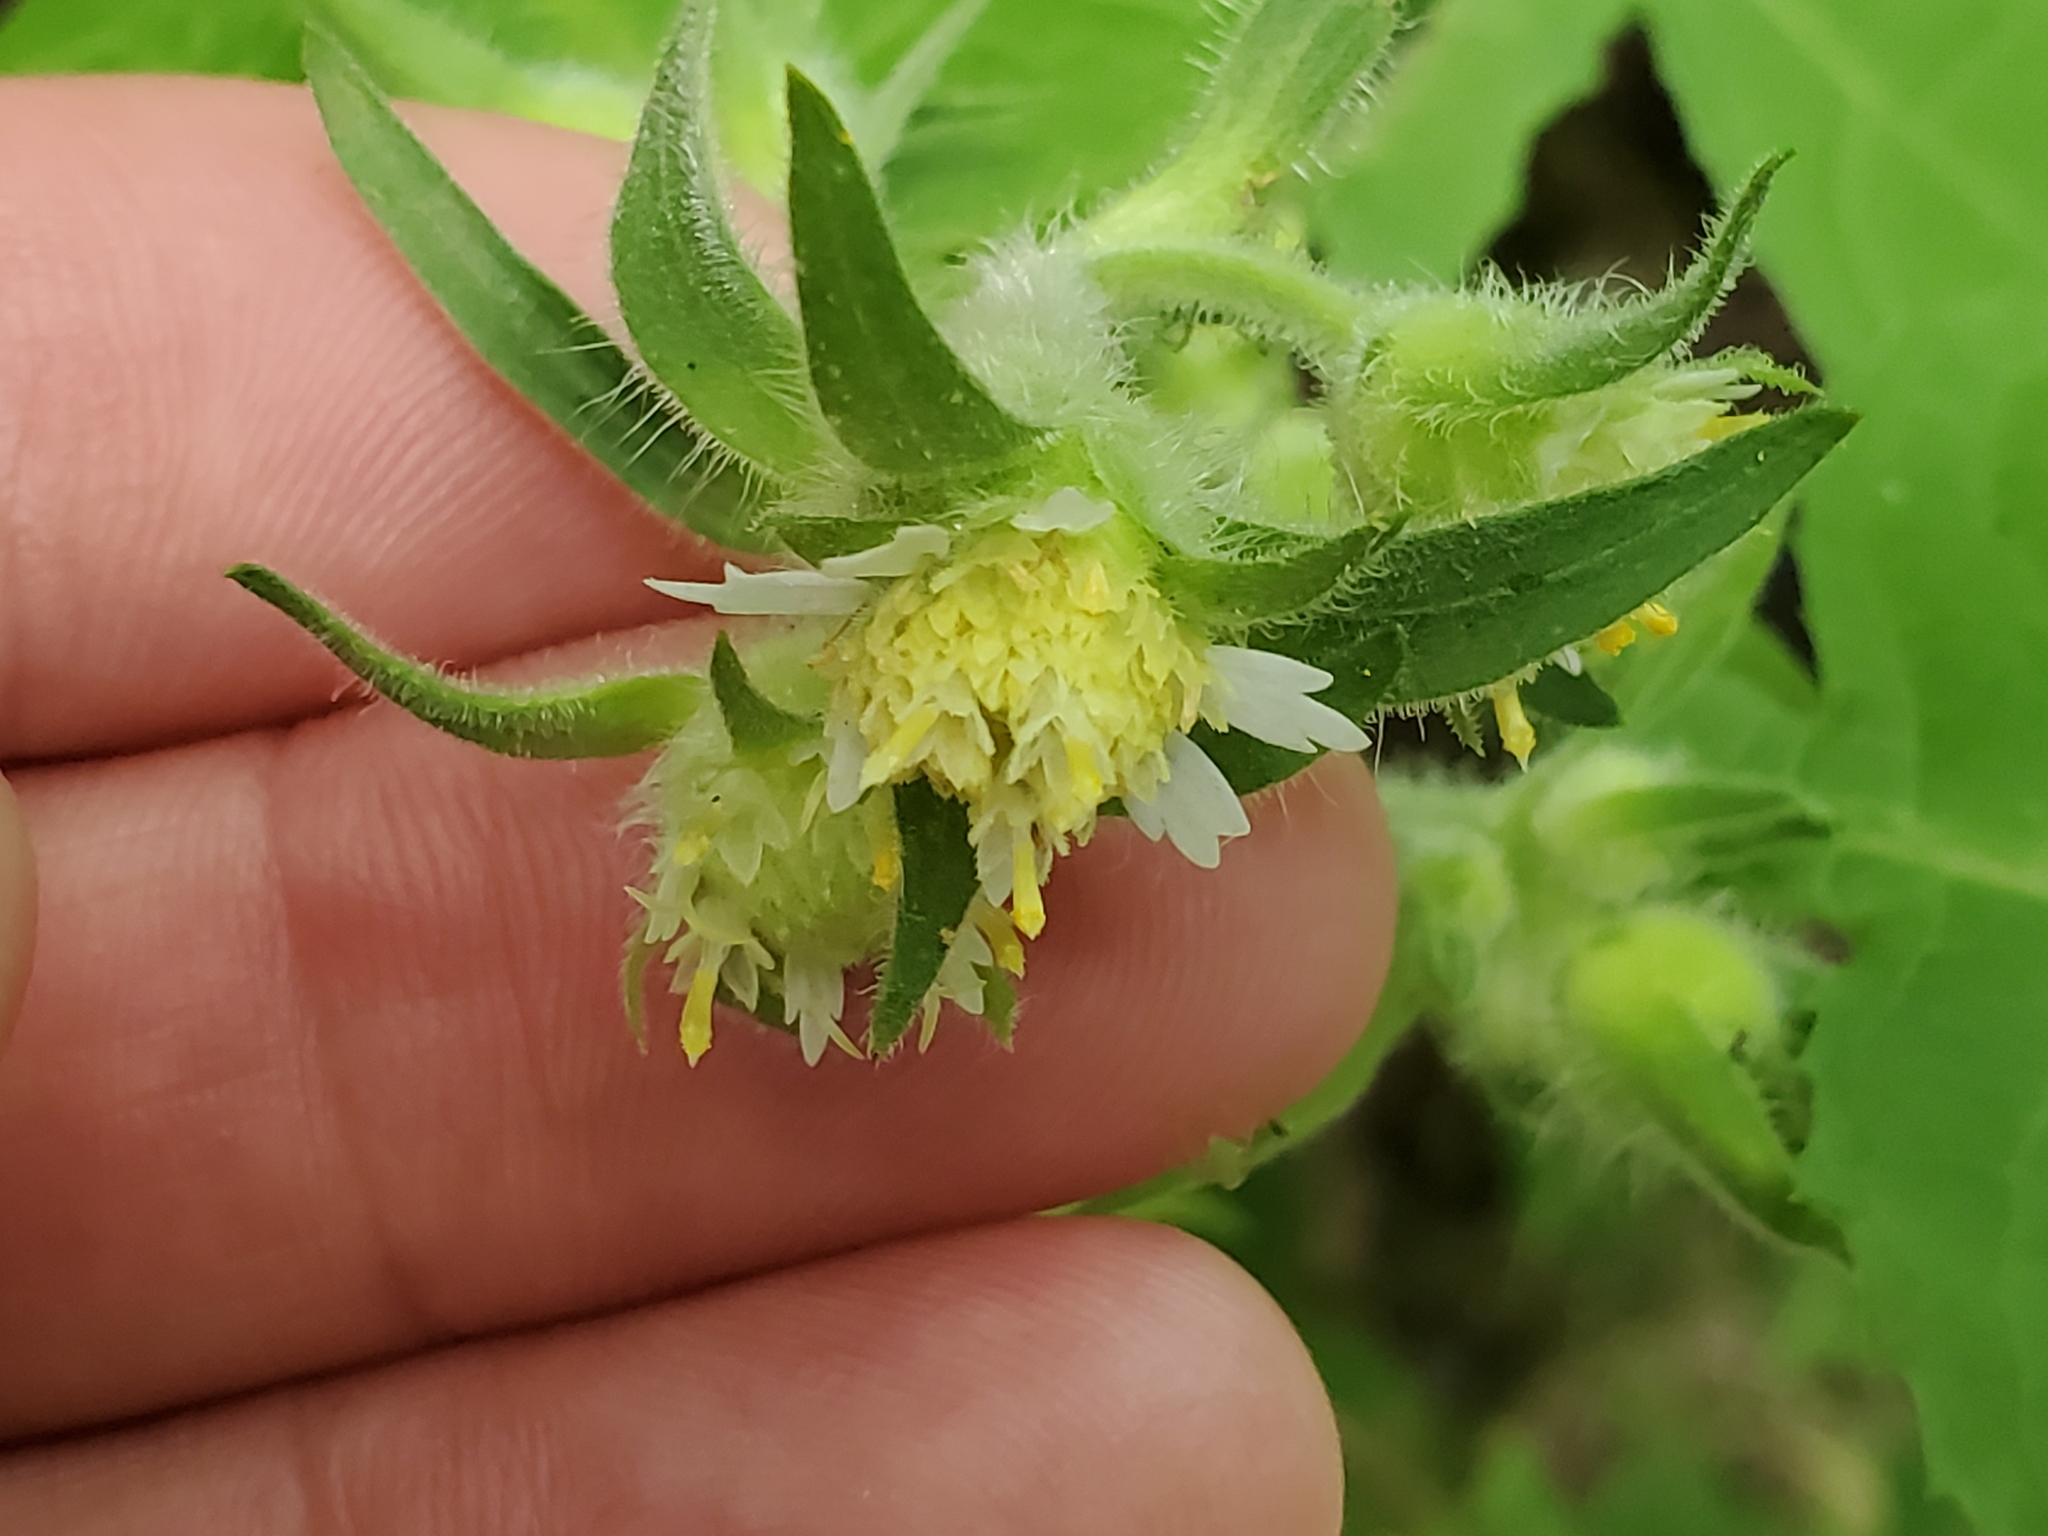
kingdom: Plantae
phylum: Tracheophyta
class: Magnoliopsida
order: Asterales
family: Asteraceae
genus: Polymnia
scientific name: Polymnia canadensis
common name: Pale-flowered leafcup
